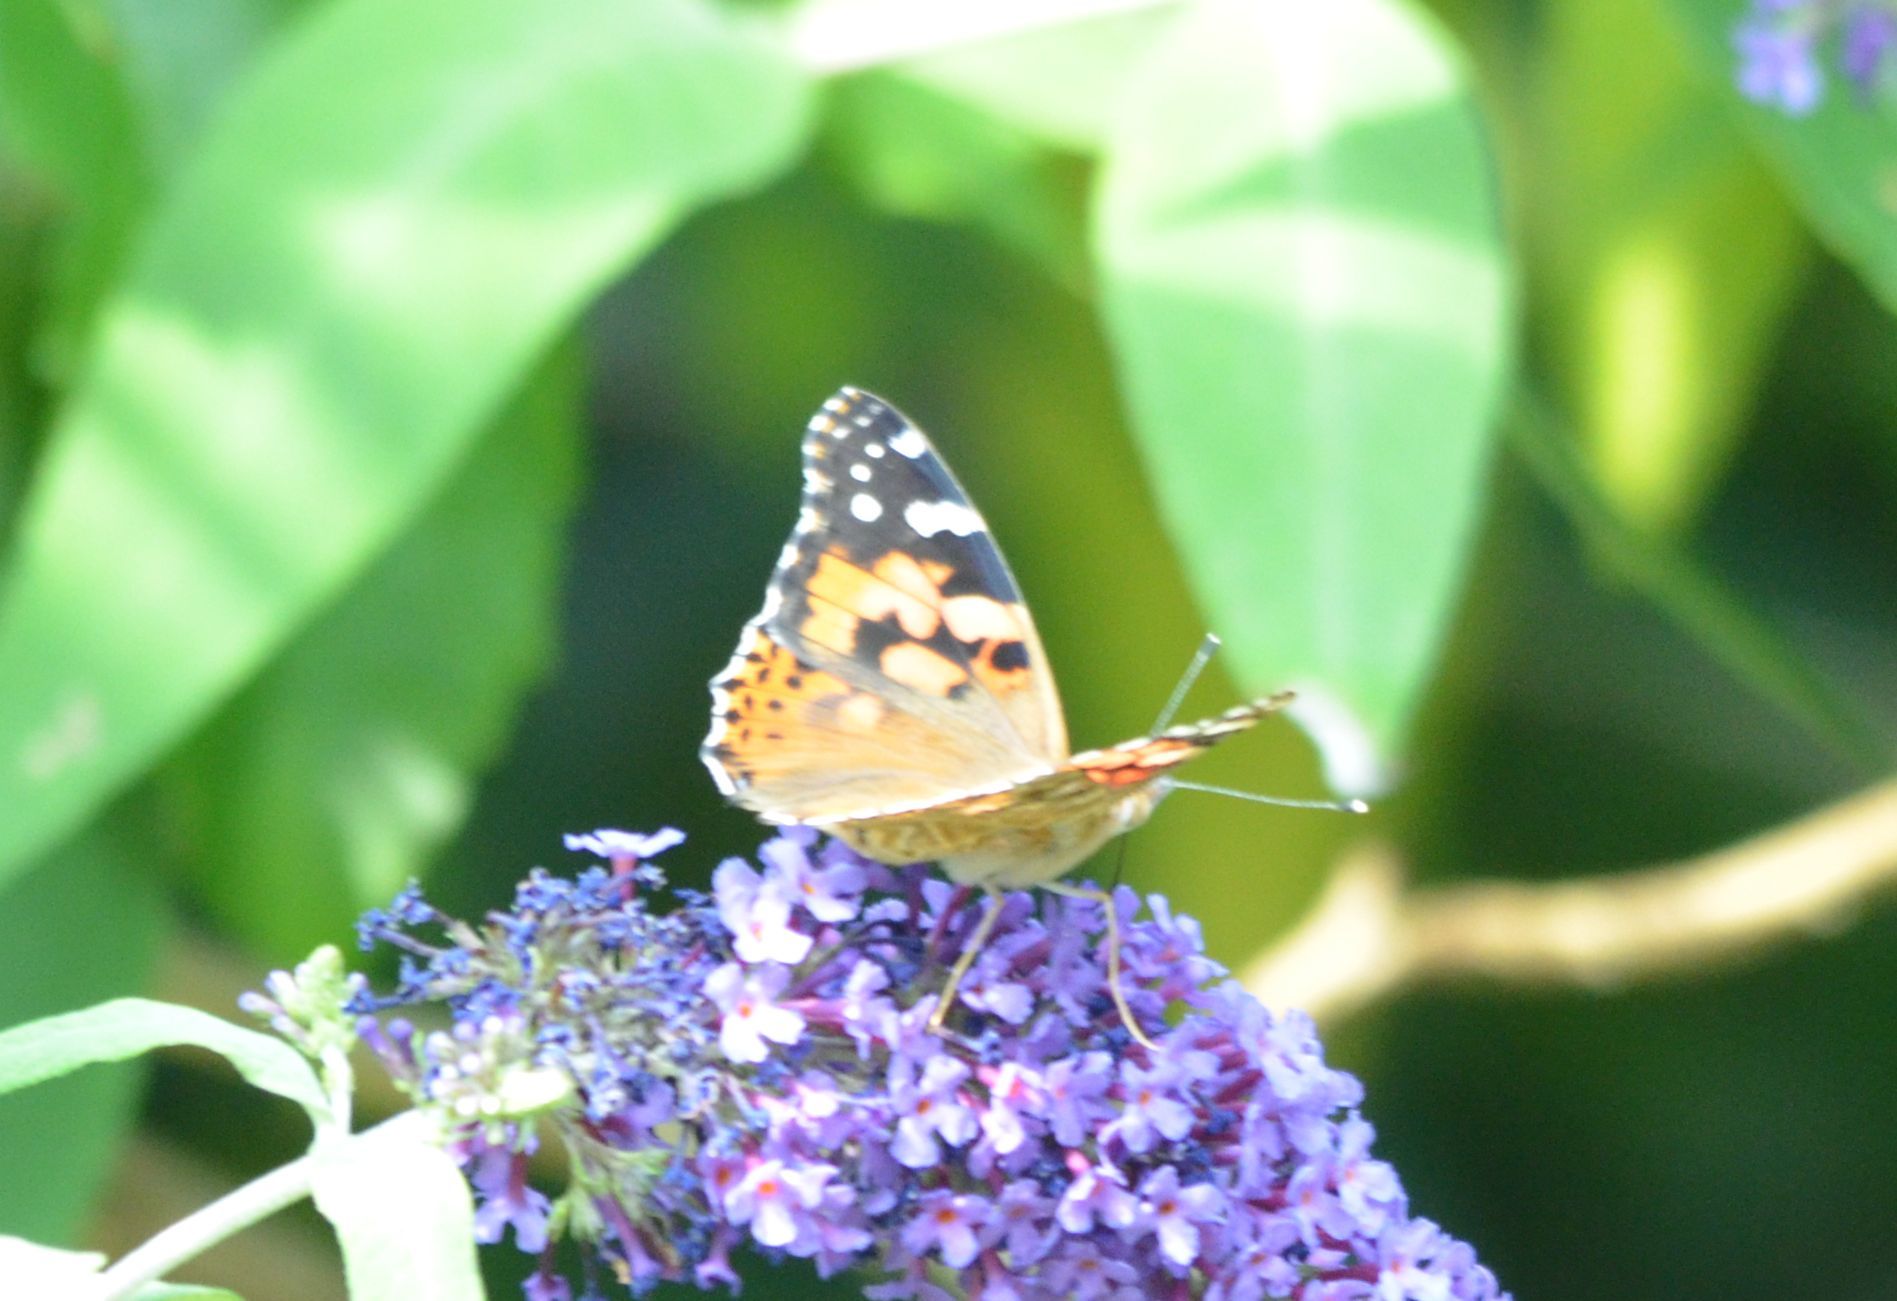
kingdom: Animalia
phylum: Arthropoda
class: Insecta
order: Lepidoptera
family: Nymphalidae
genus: Vanessa
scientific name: Vanessa cardui
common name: Painted lady
